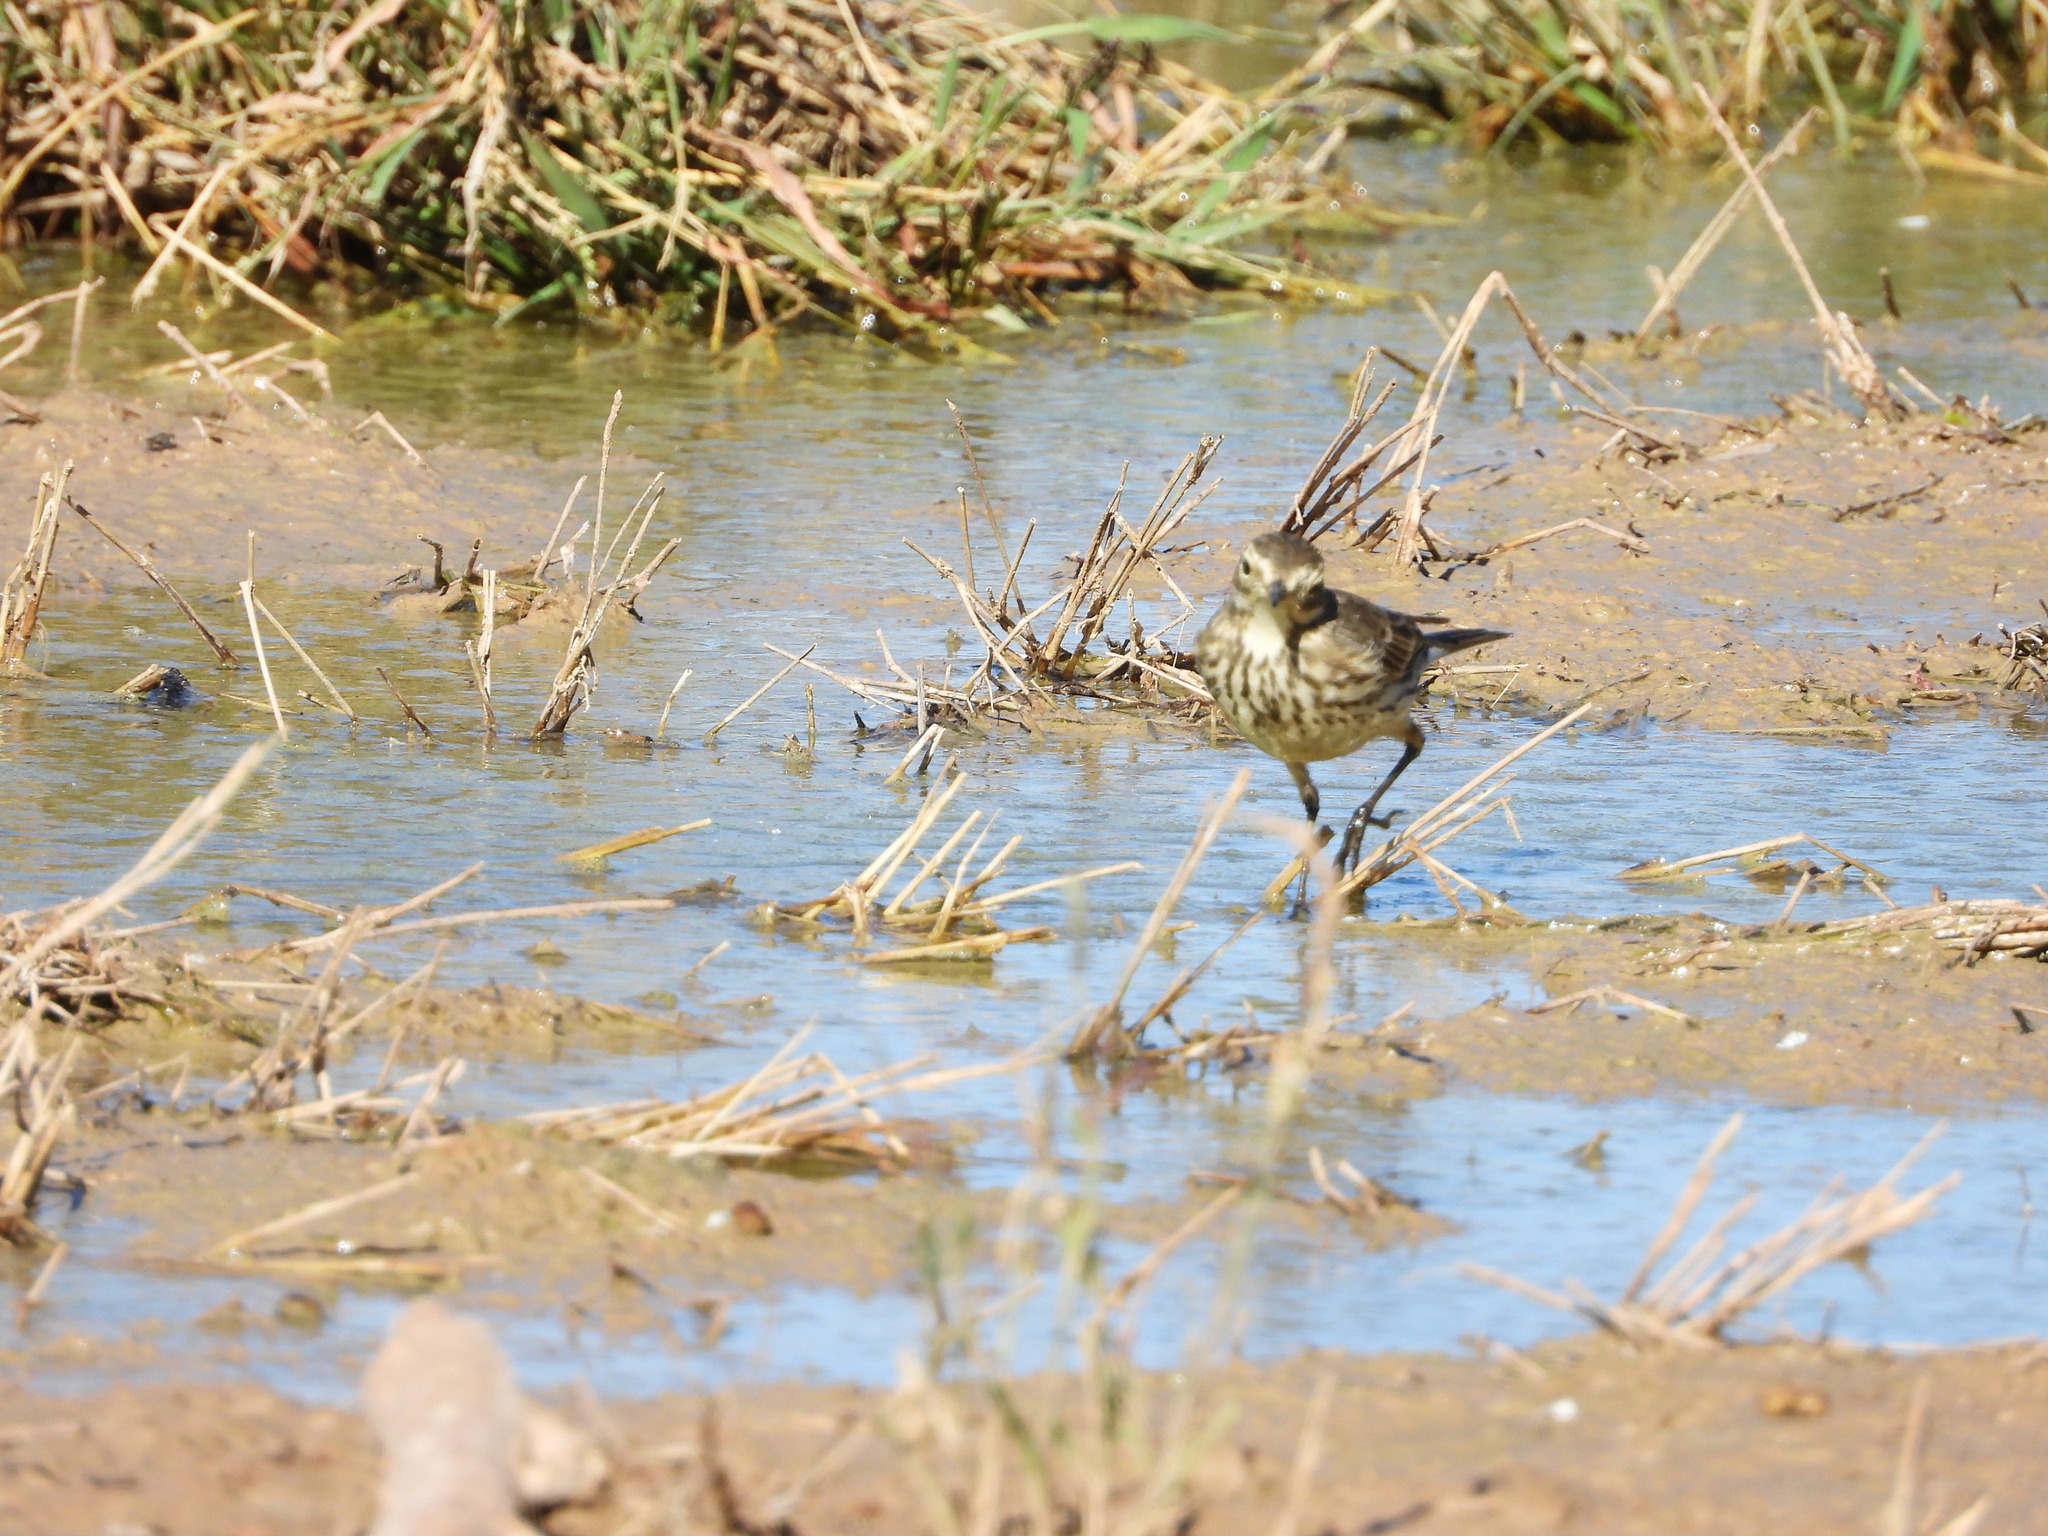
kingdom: Animalia
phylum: Chordata
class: Aves
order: Passeriformes
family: Motacillidae
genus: Anthus
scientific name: Anthus rubescens
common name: Buff-bellied pipit
